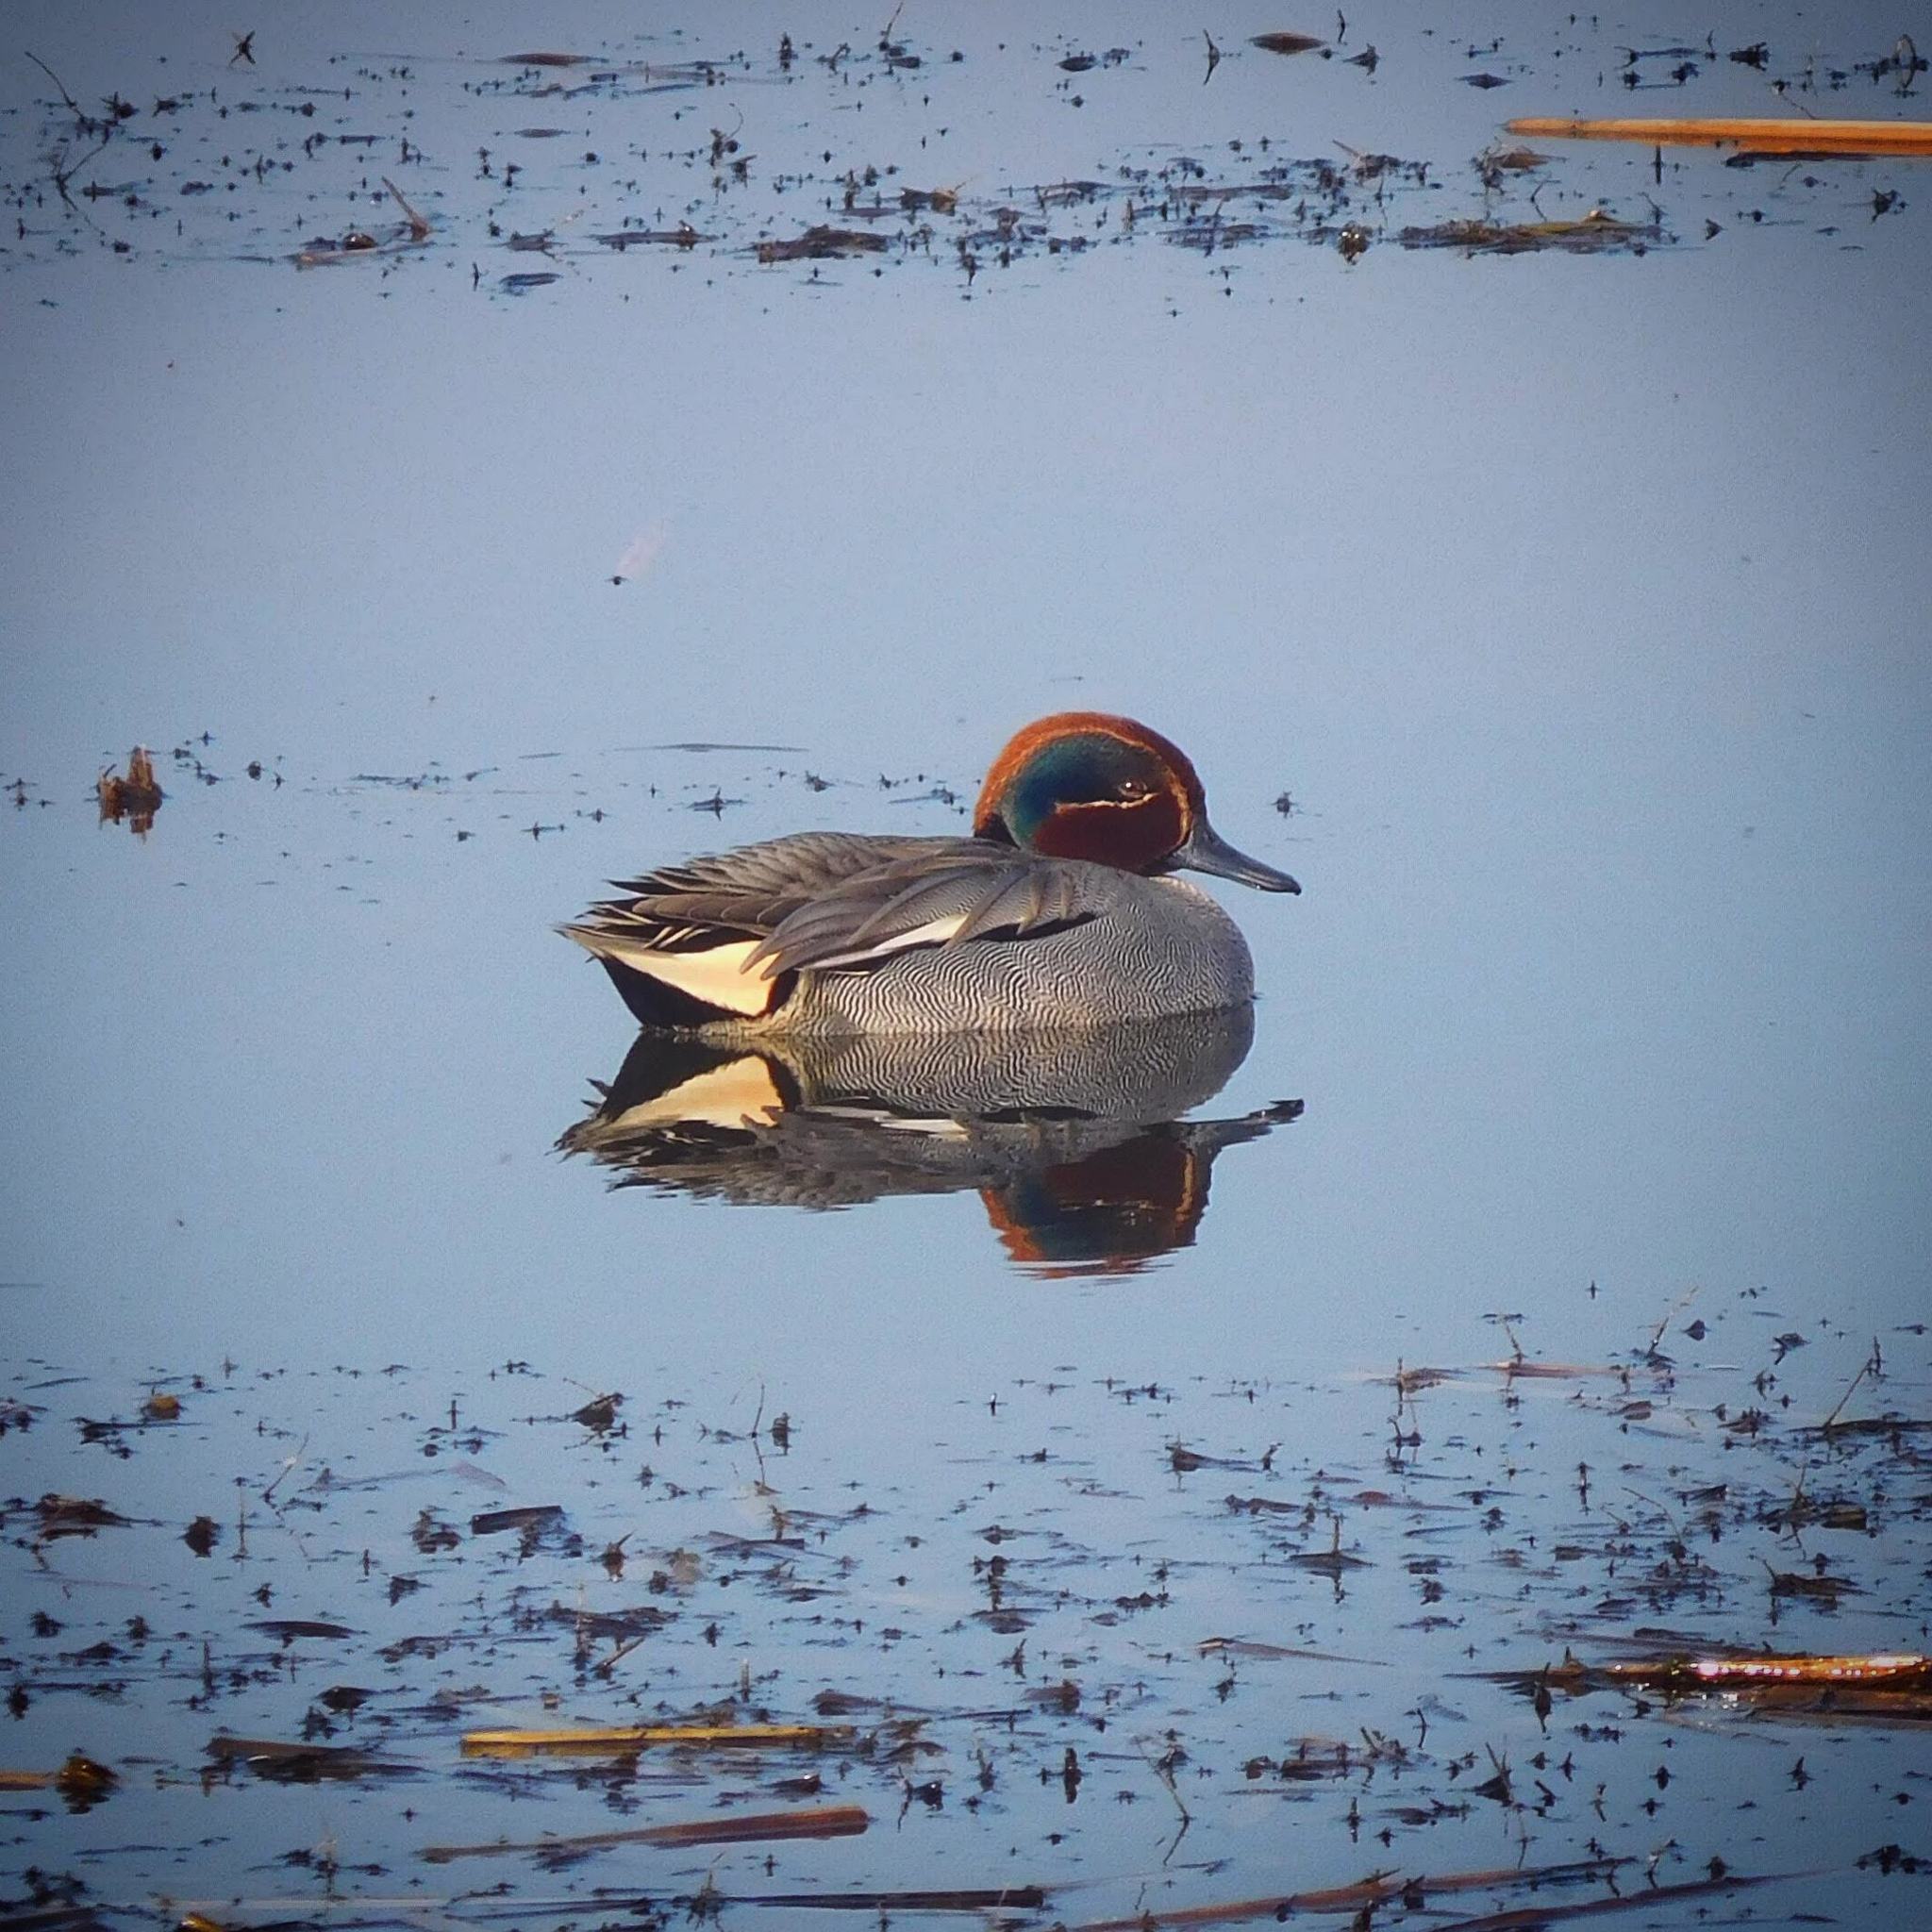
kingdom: Animalia
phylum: Chordata
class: Aves
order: Anseriformes
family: Anatidae
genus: Anas
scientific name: Anas crecca
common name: Eurasian teal
